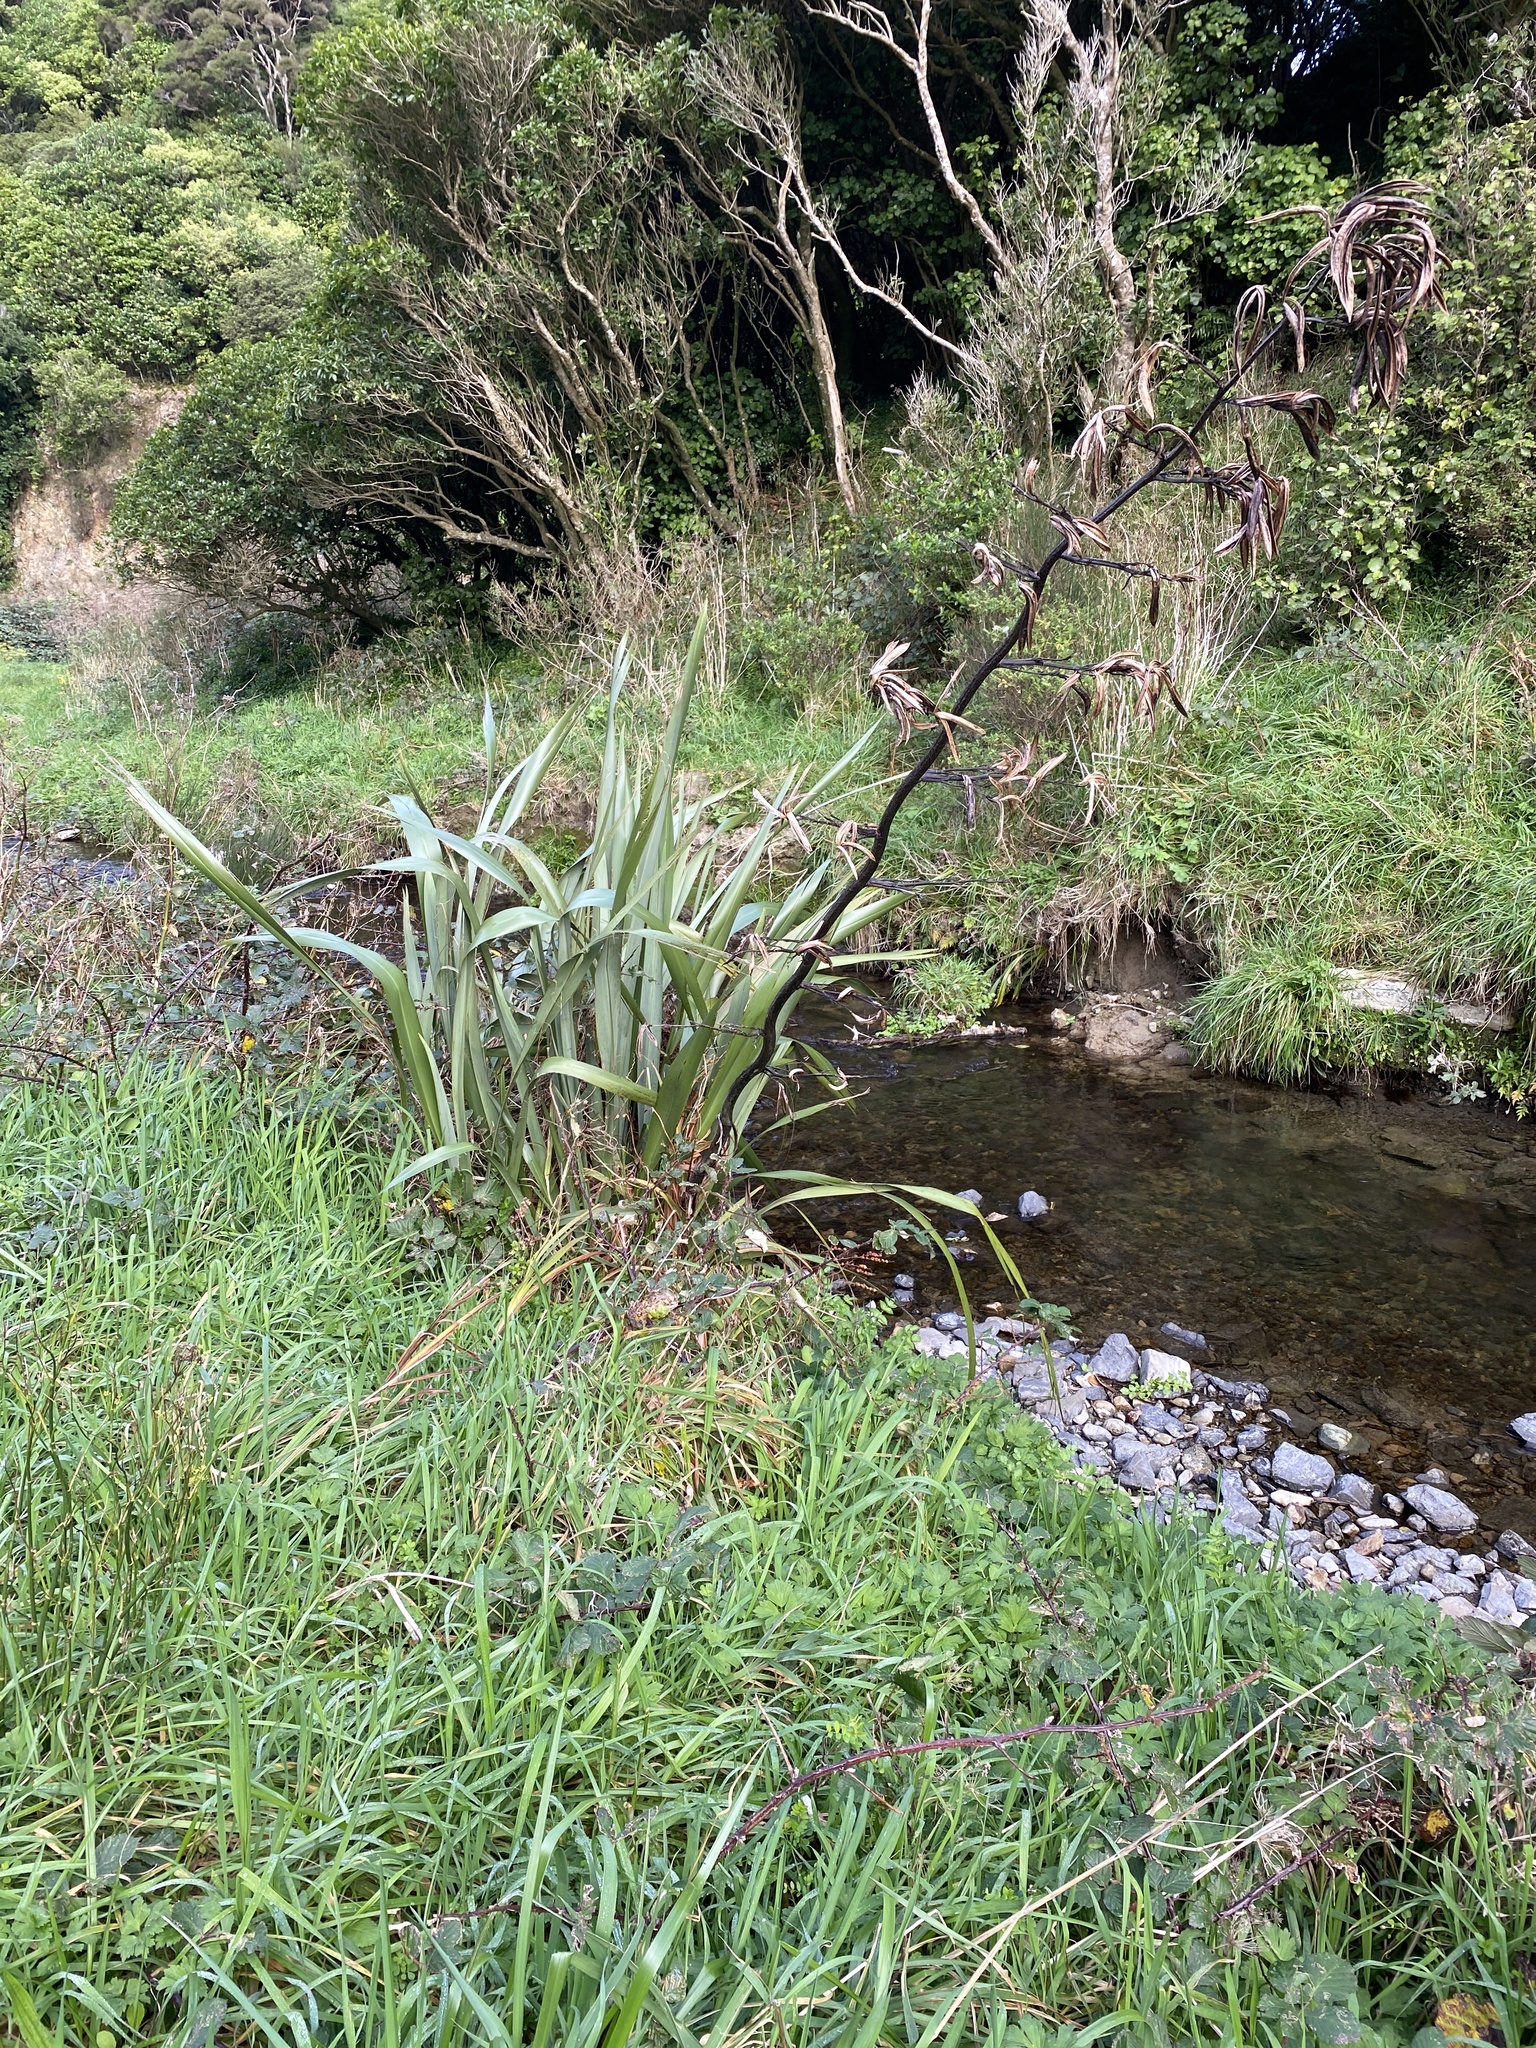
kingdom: Plantae
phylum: Tracheophyta
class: Liliopsida
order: Asparagales
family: Asphodelaceae
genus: Phormium
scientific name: Phormium tenax
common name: New zealand flax
